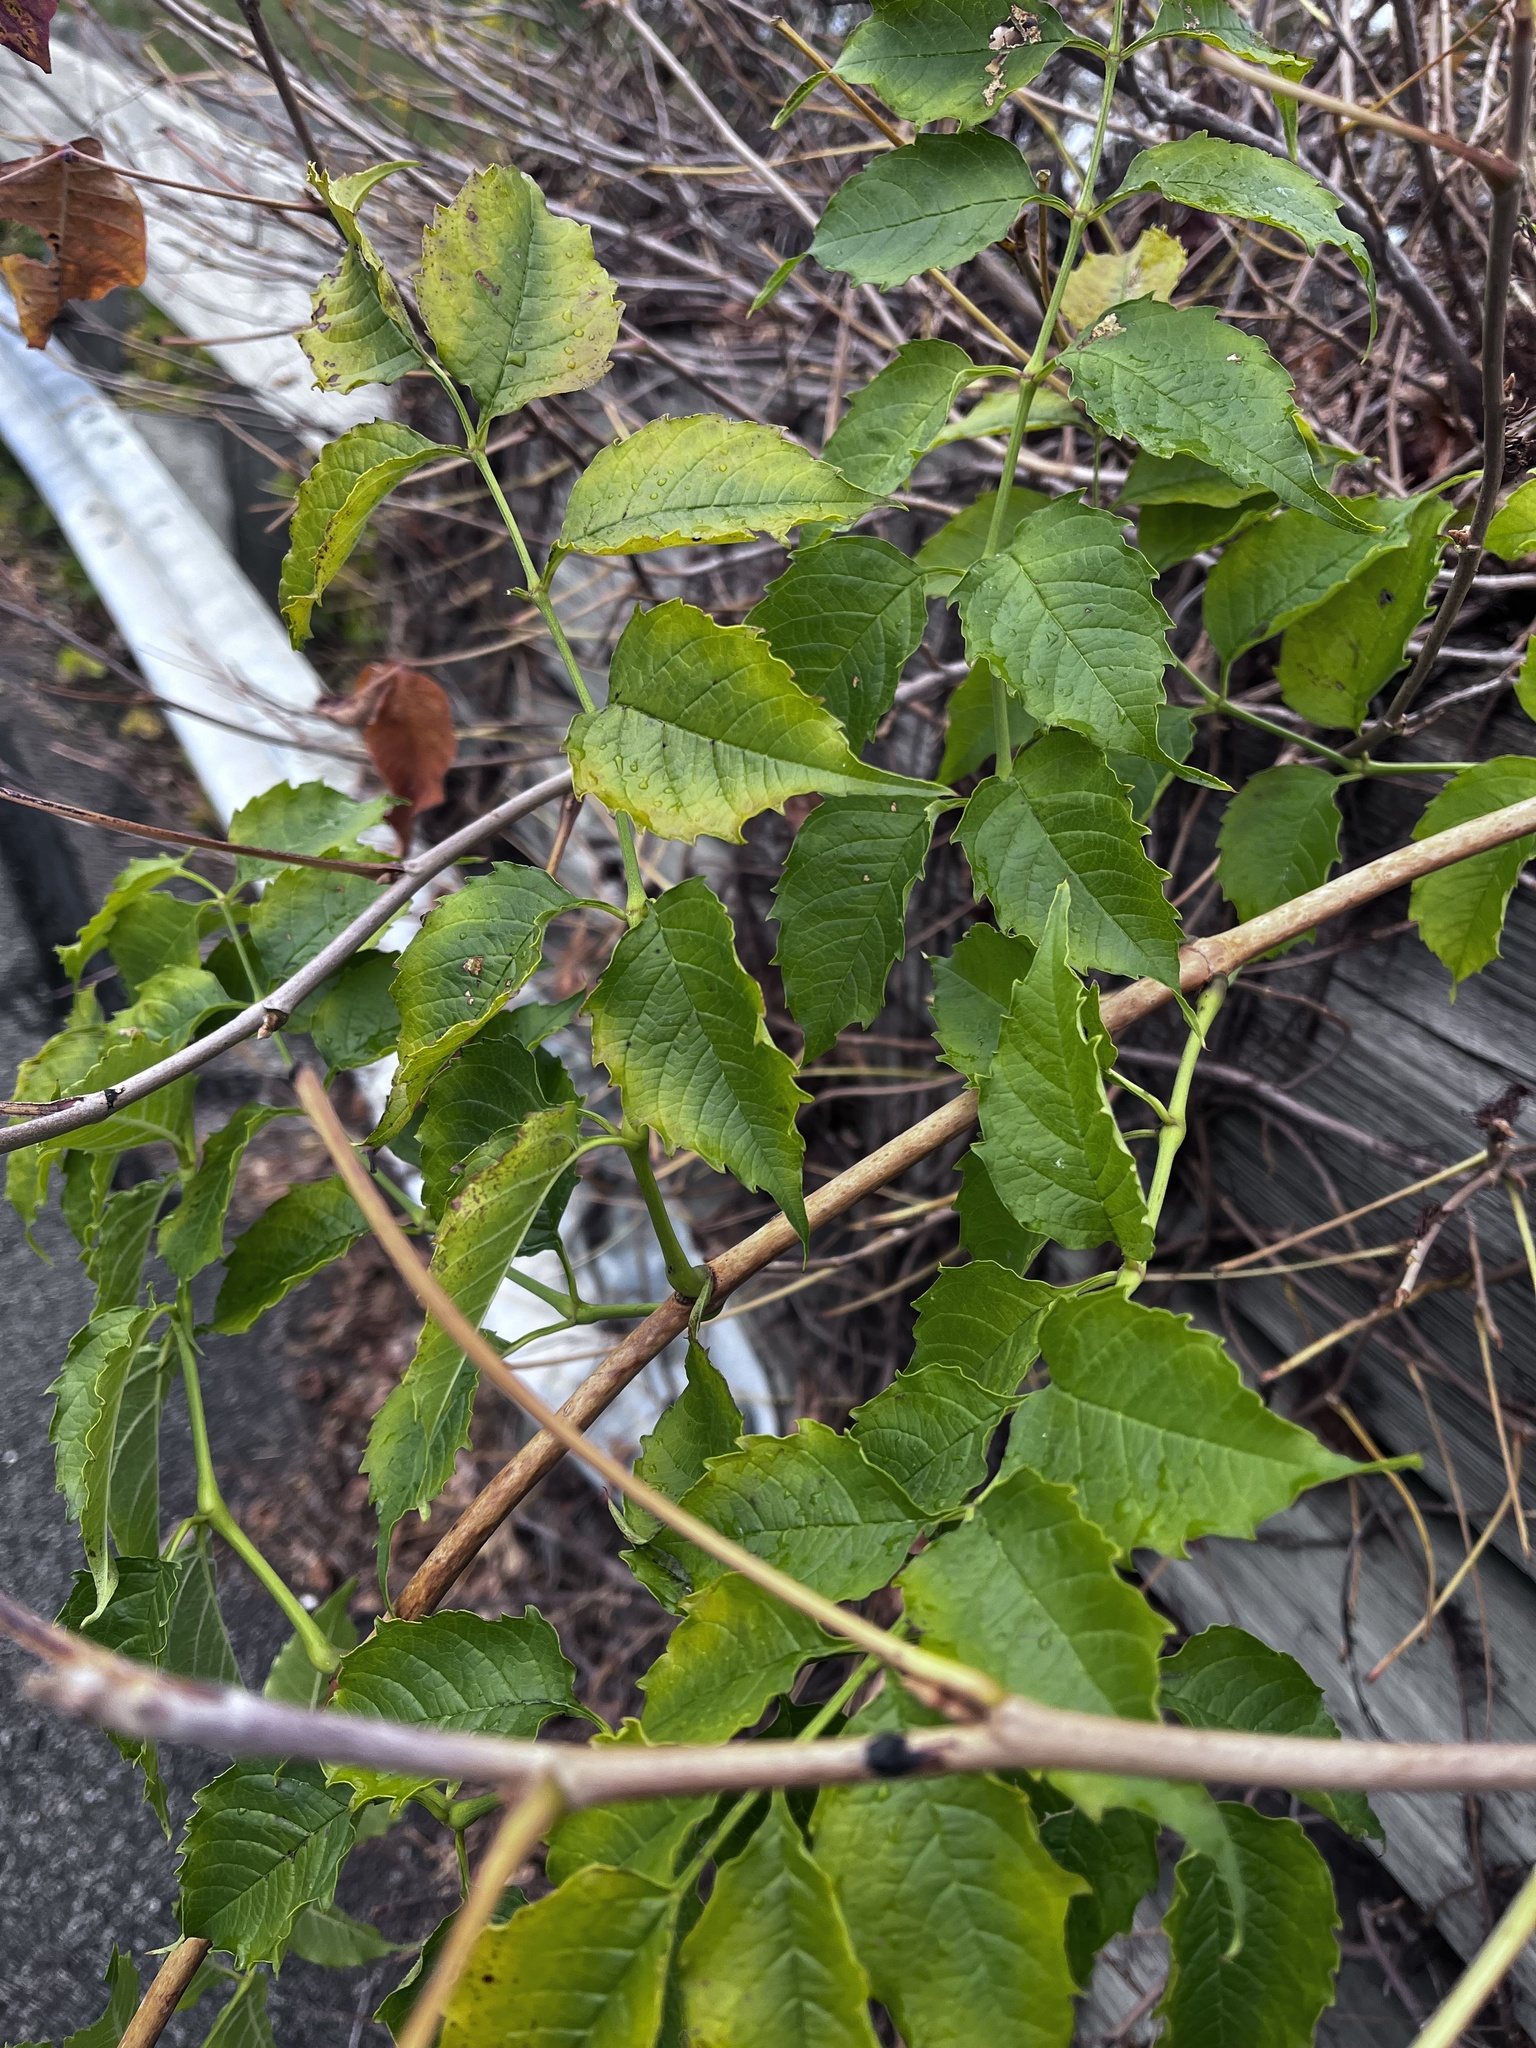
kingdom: Plantae
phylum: Tracheophyta
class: Magnoliopsida
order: Lamiales
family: Bignoniaceae
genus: Campsis
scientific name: Campsis radicans
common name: Trumpet-creeper
